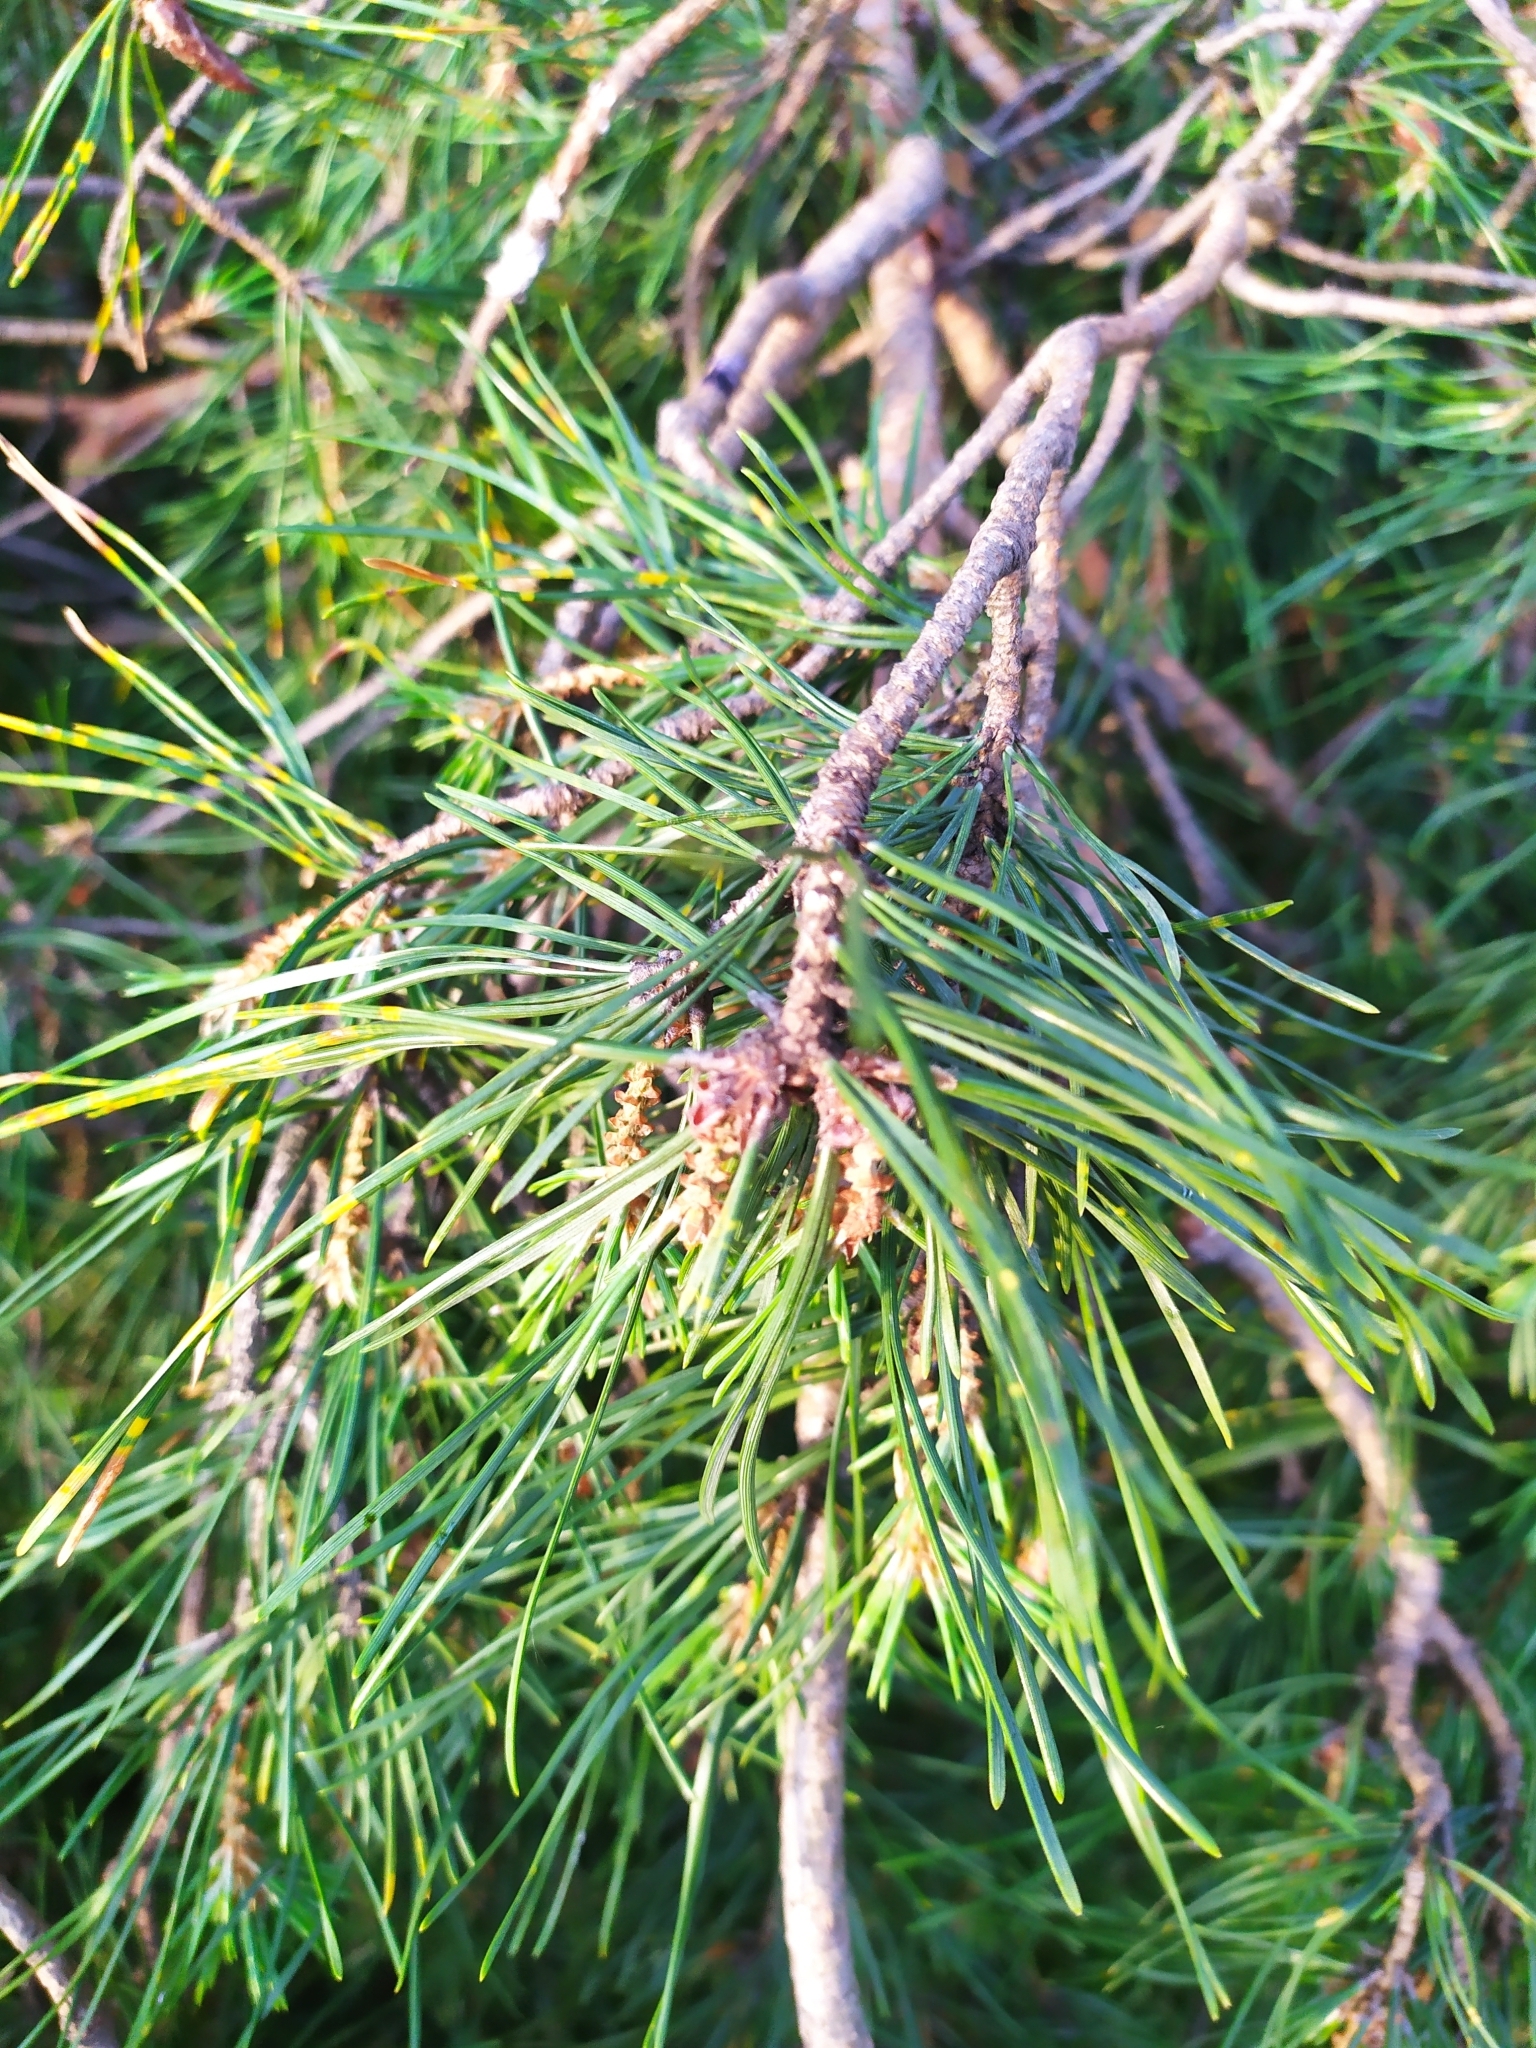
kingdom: Plantae
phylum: Tracheophyta
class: Pinopsida
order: Pinales
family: Pinaceae
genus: Pinus
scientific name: Pinus sylvestris
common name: Scots pine
